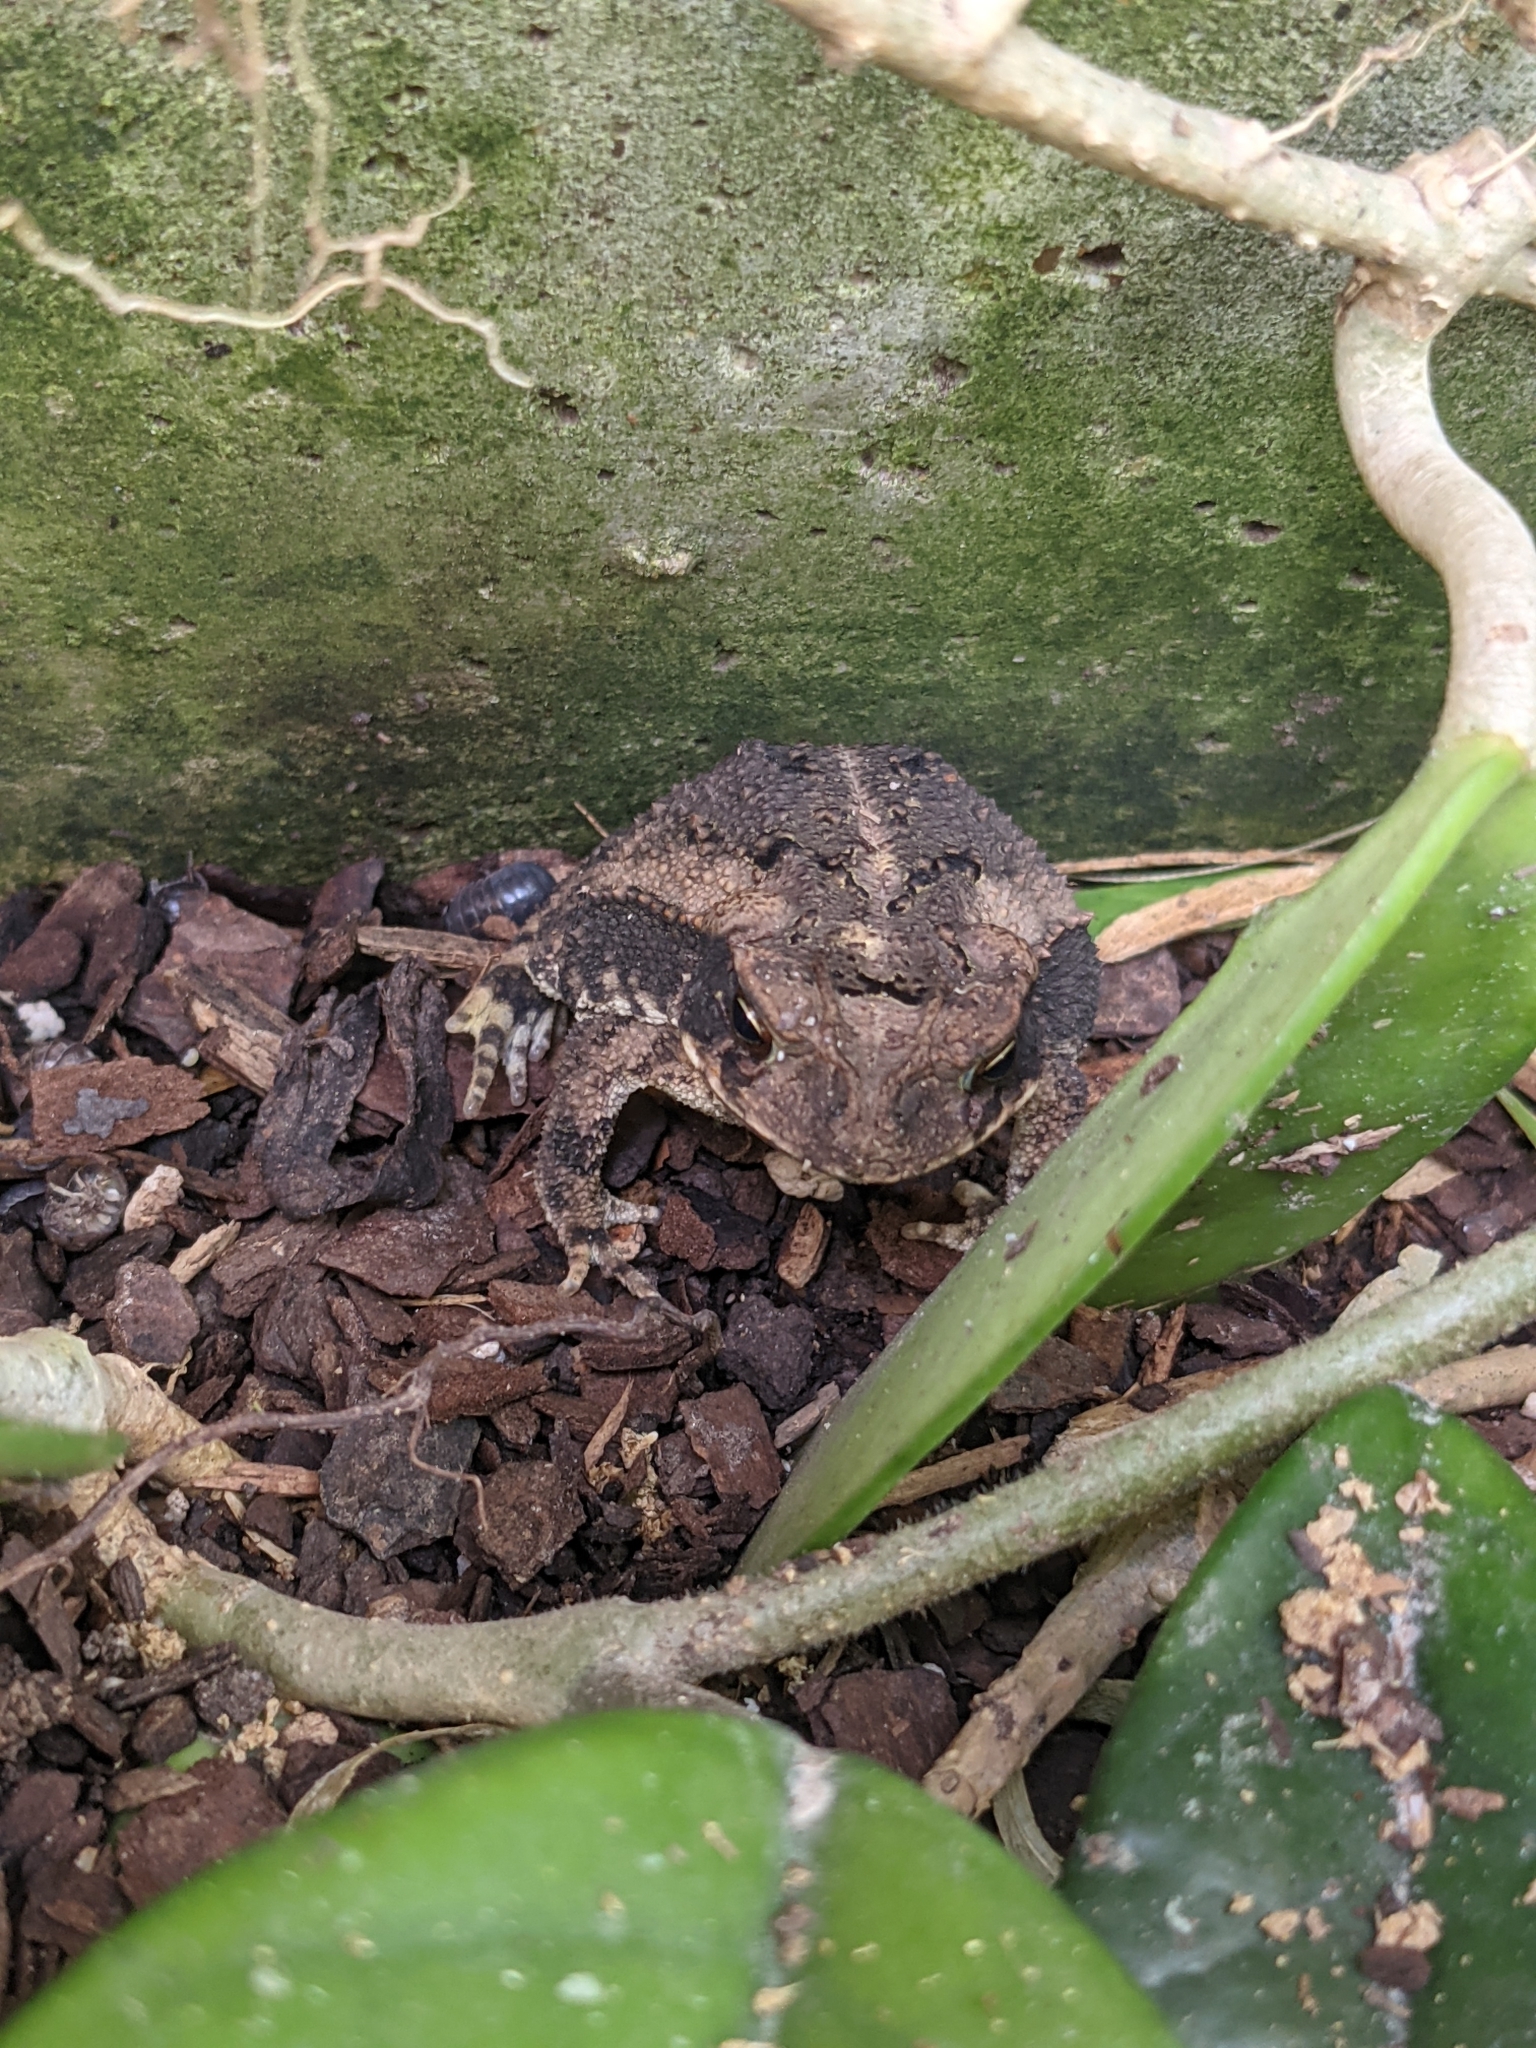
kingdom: Animalia
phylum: Chordata
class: Amphibia
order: Anura
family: Bufonidae
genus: Incilius
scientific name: Incilius nebulifer
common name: Gulf coast toad
